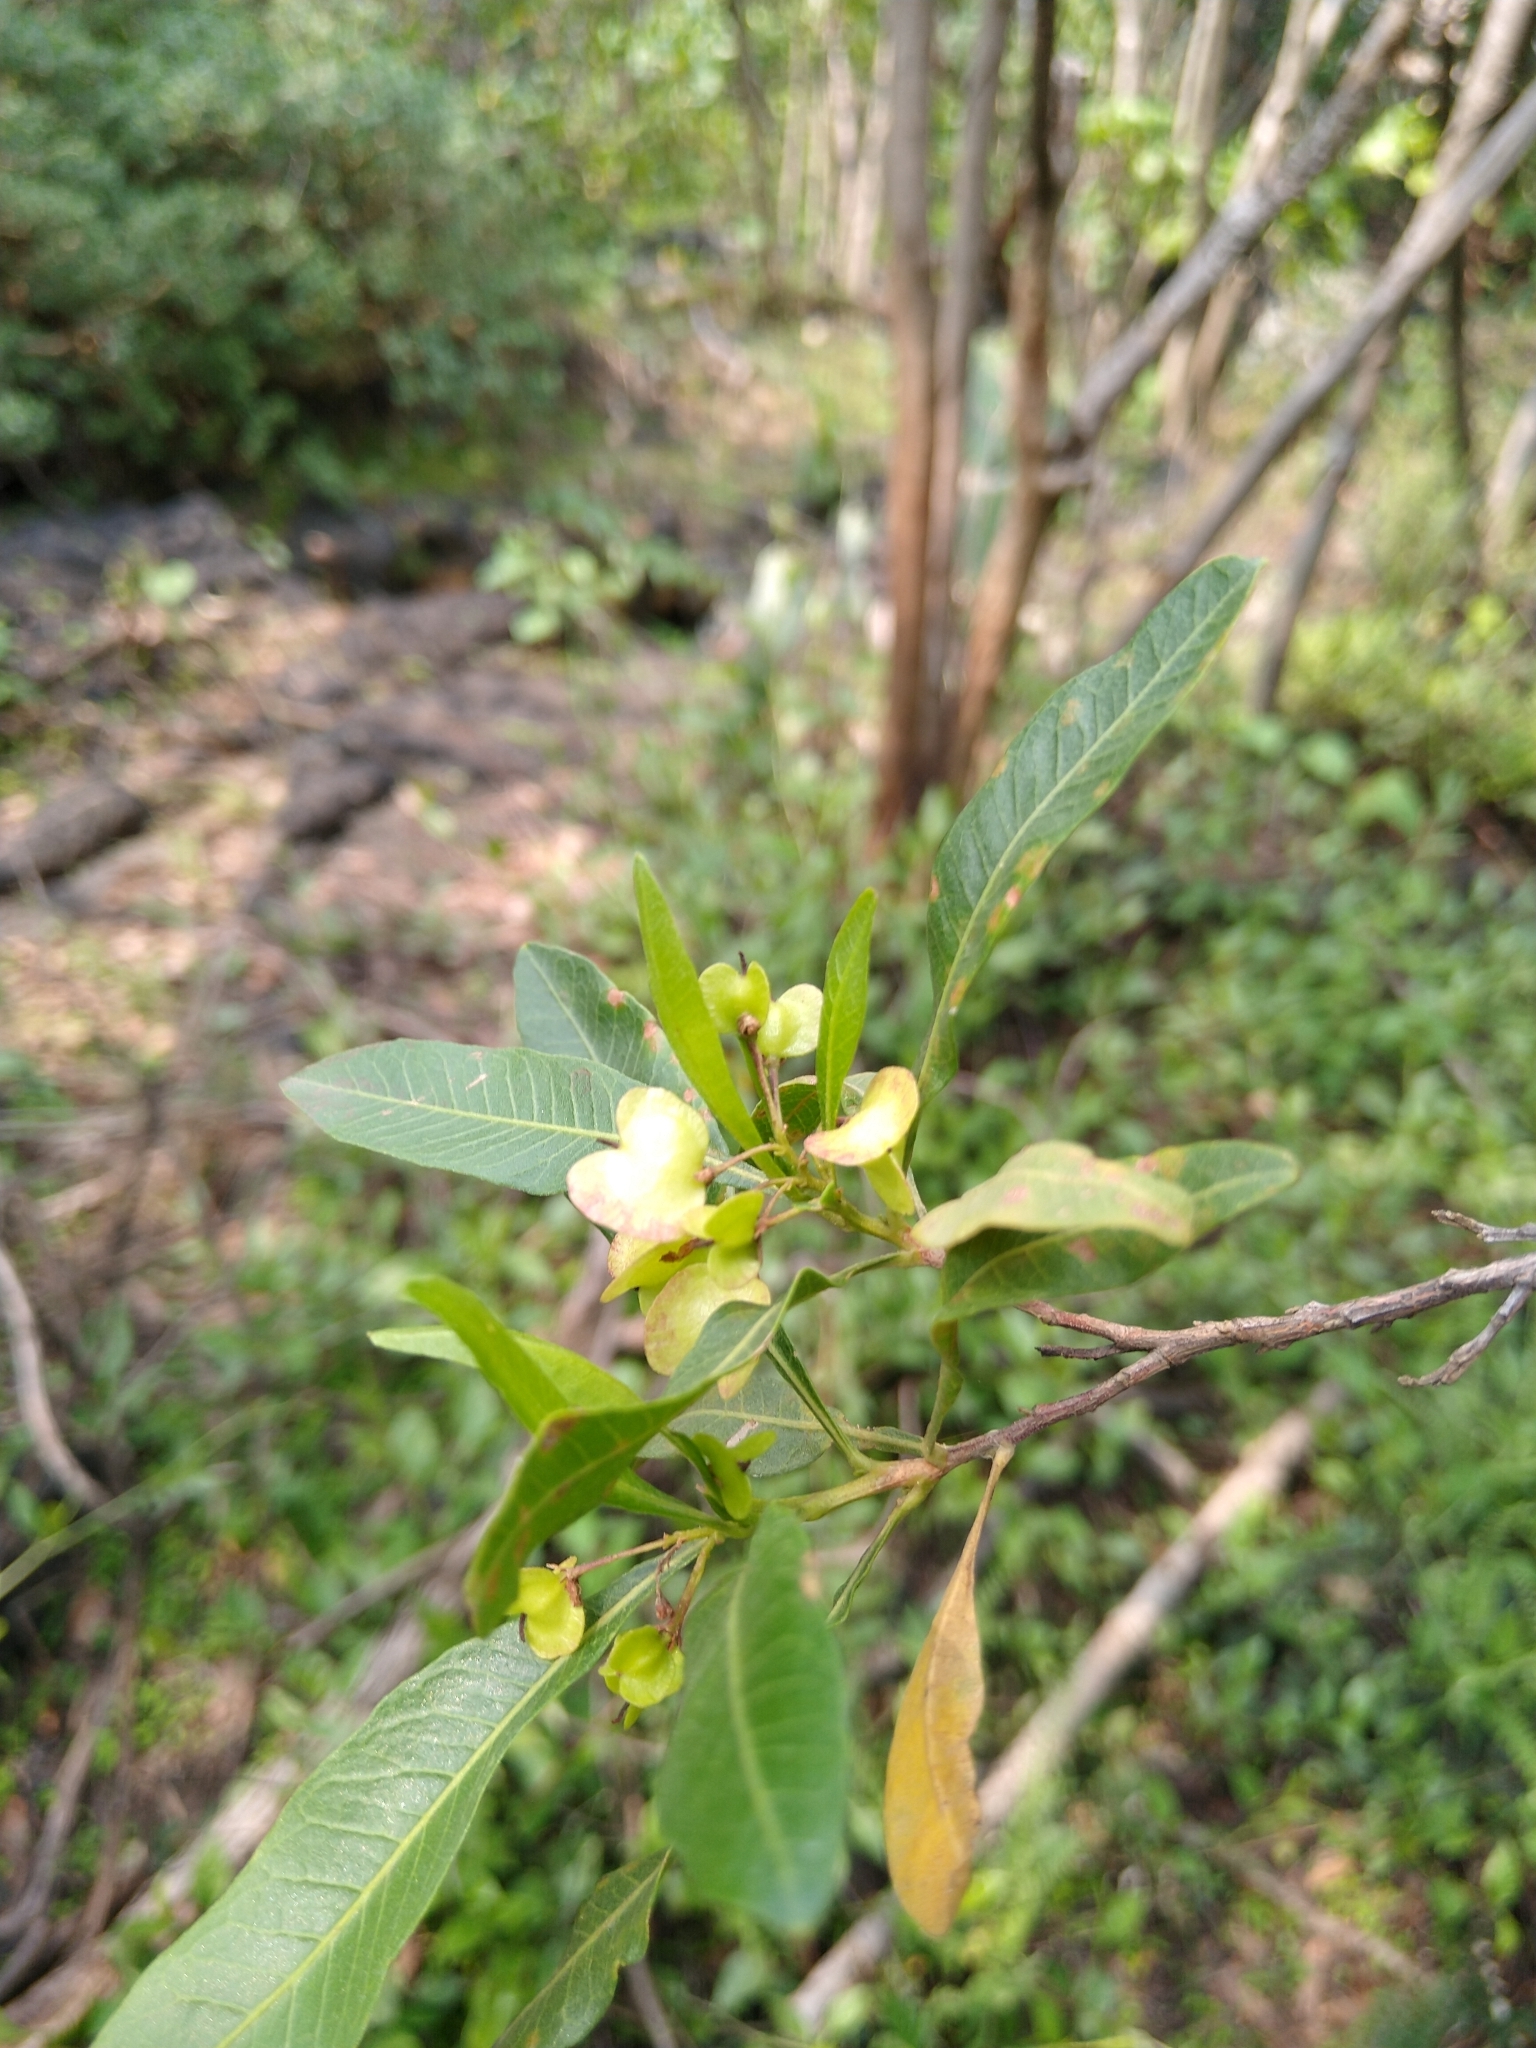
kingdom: Plantae
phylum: Tracheophyta
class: Magnoliopsida
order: Sapindales
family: Sapindaceae
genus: Dodonaea
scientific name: Dodonaea viscosa
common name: Hopbush
